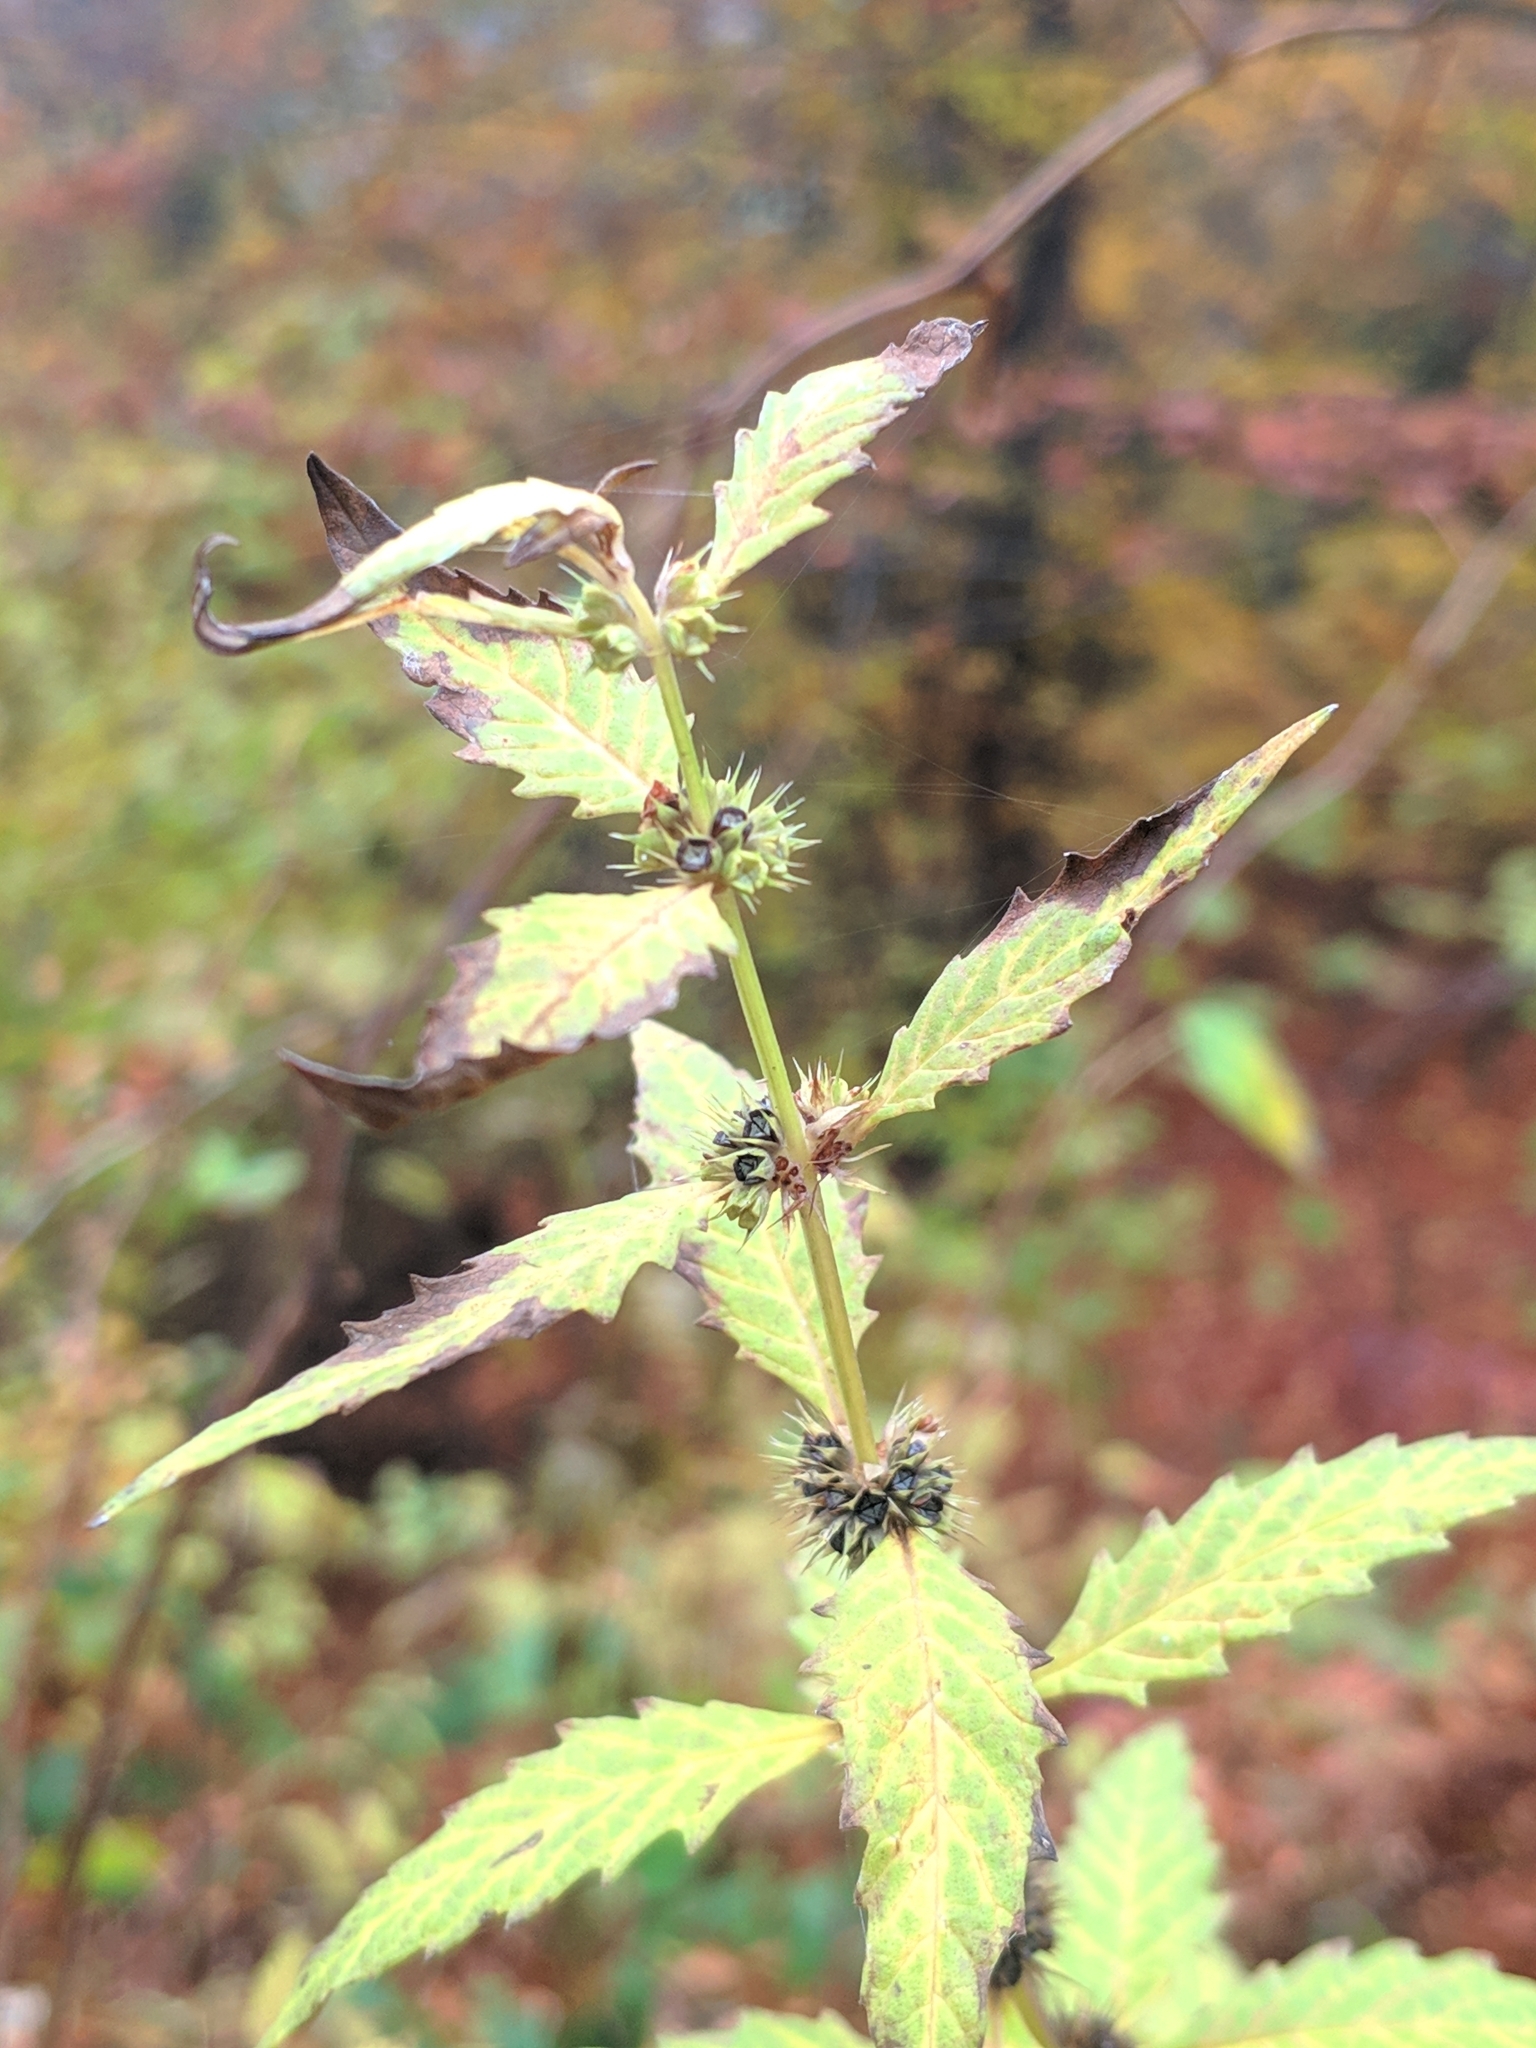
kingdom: Plantae
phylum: Tracheophyta
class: Magnoliopsida
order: Lamiales
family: Lamiaceae
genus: Lycopus
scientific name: Lycopus europaeus
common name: European bugleweed
